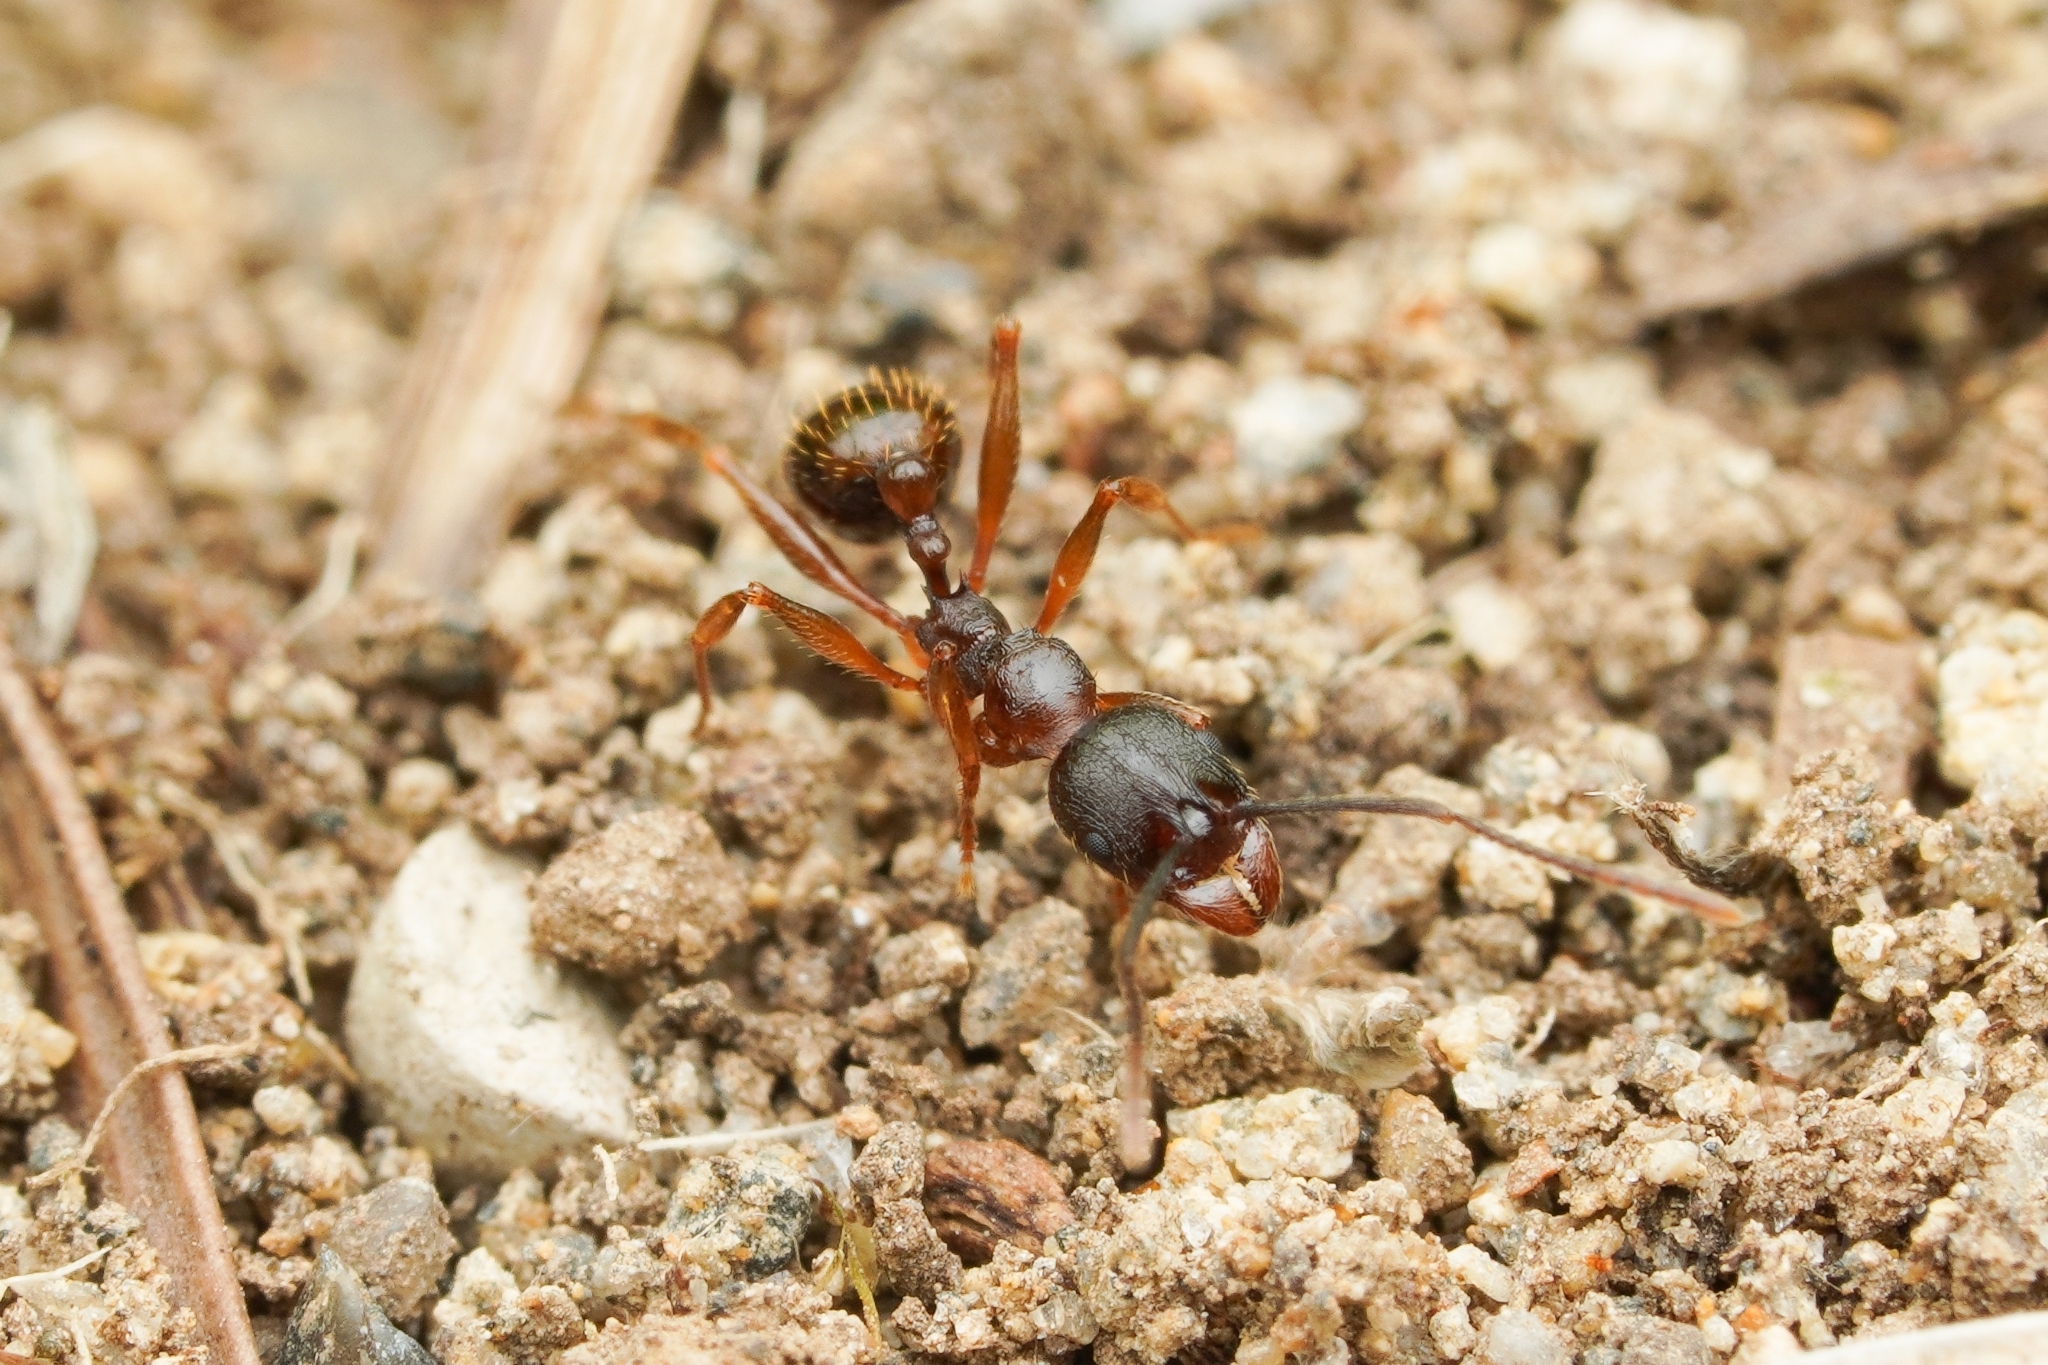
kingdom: Animalia
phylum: Arthropoda
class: Insecta
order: Hymenoptera
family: Formicidae
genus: Aphaenogaster
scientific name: Aphaenogaster japonica
